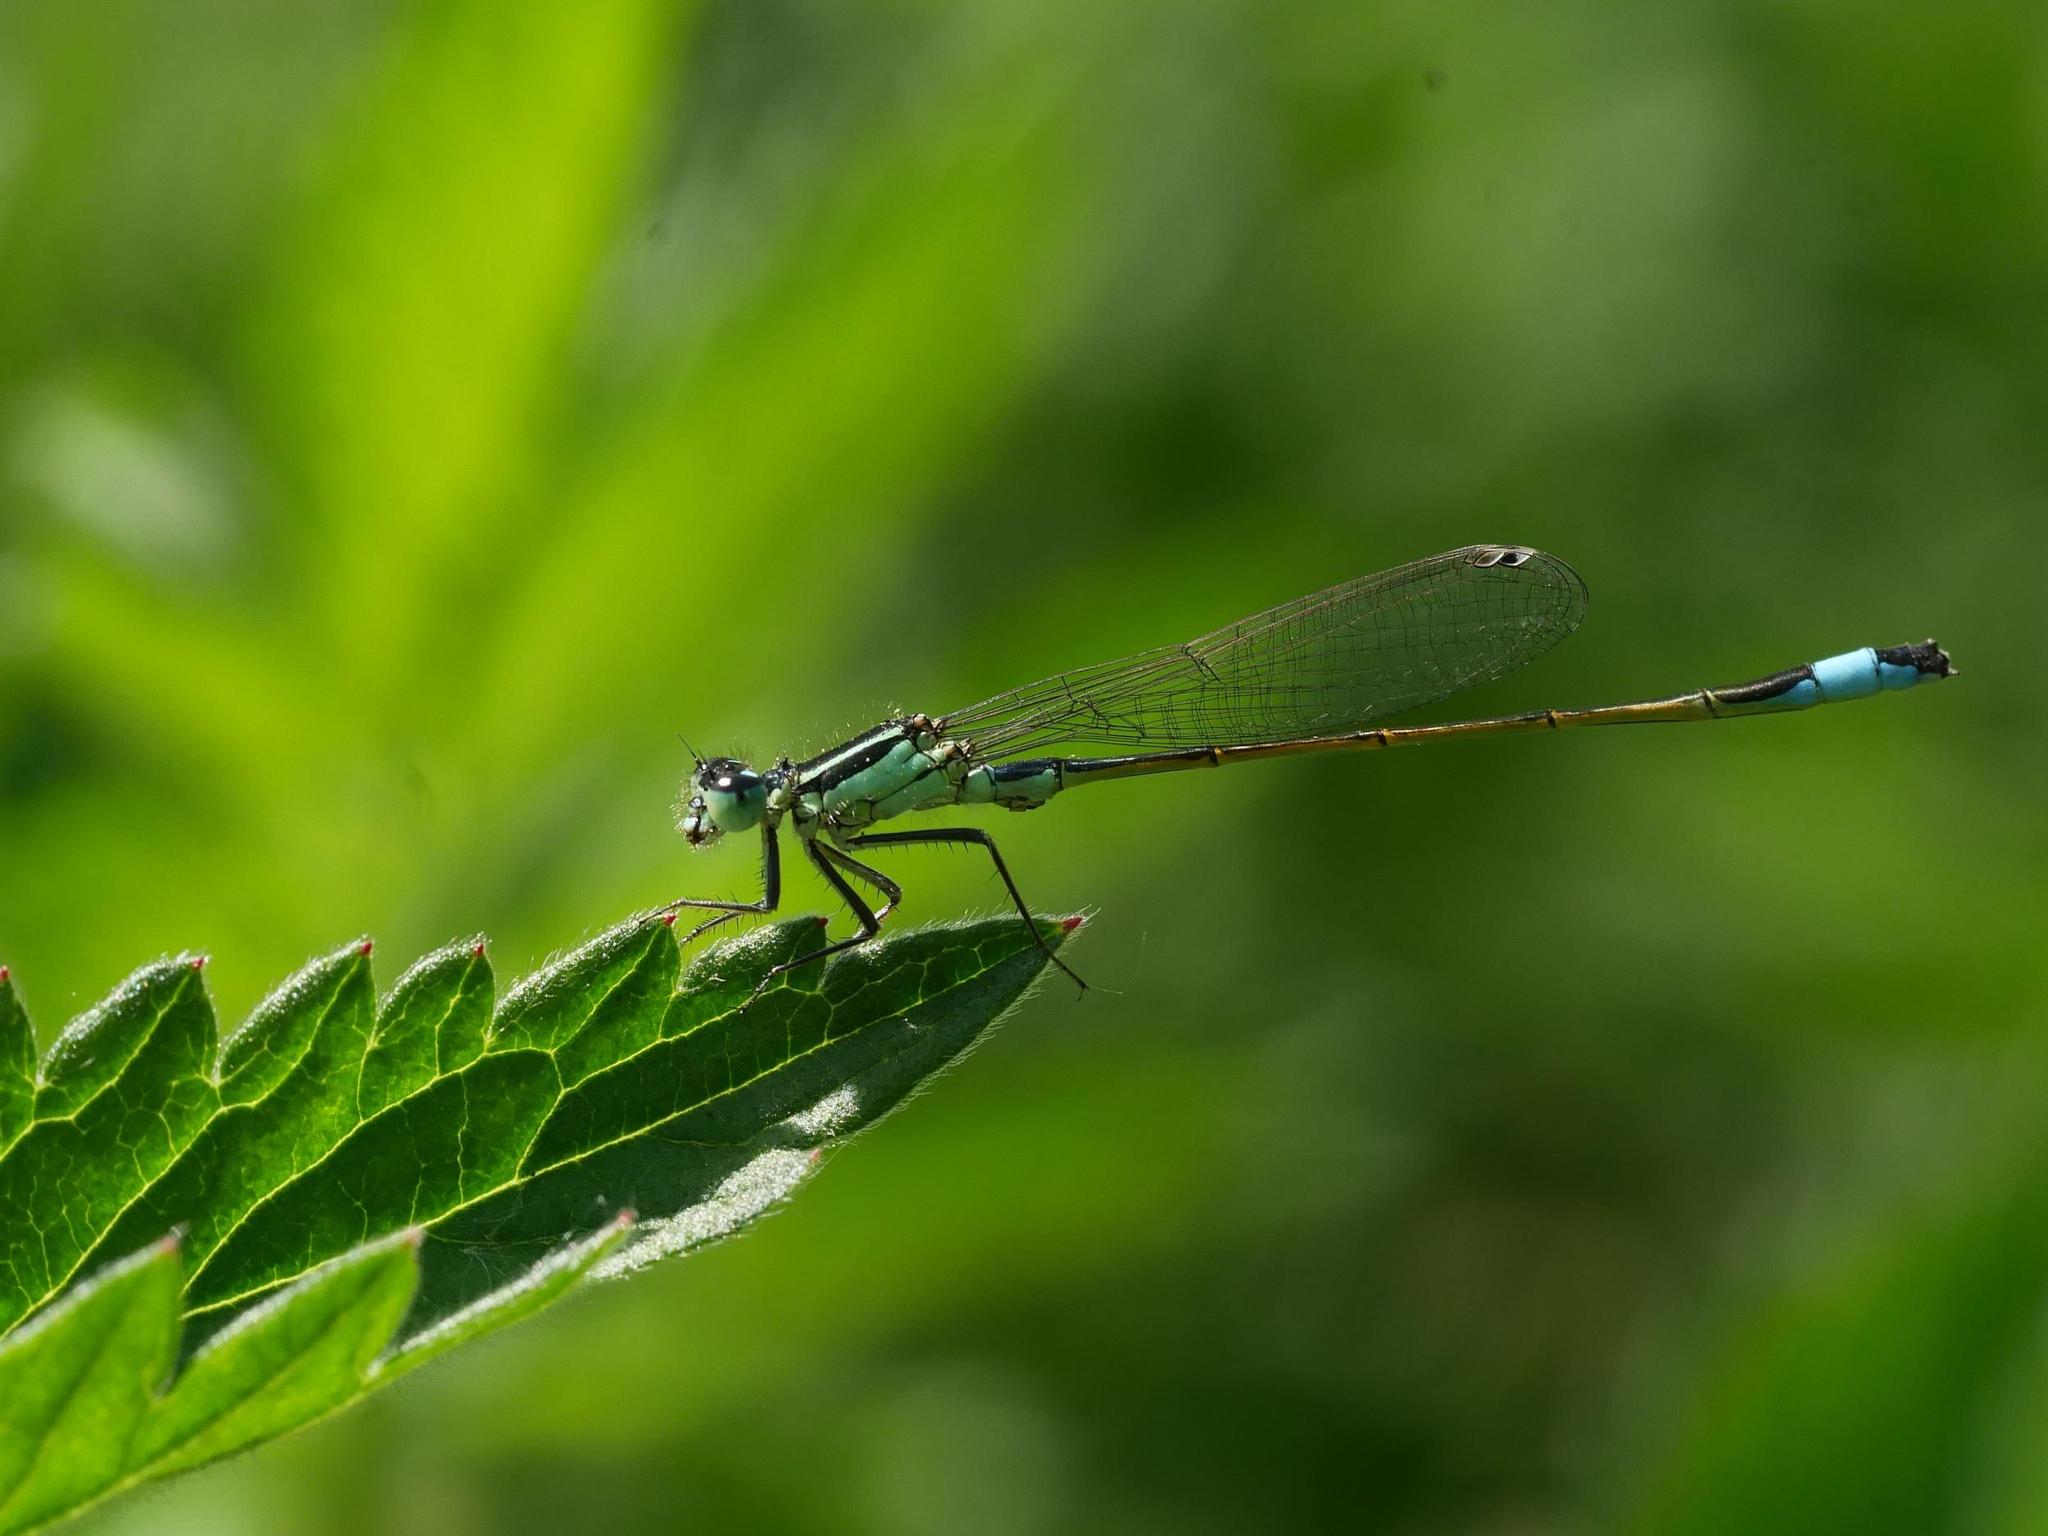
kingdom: Animalia
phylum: Arthropoda
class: Insecta
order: Odonata
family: Coenagrionidae
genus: Ischnura
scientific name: Ischnura elegans
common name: Blue-tailed damselfly
